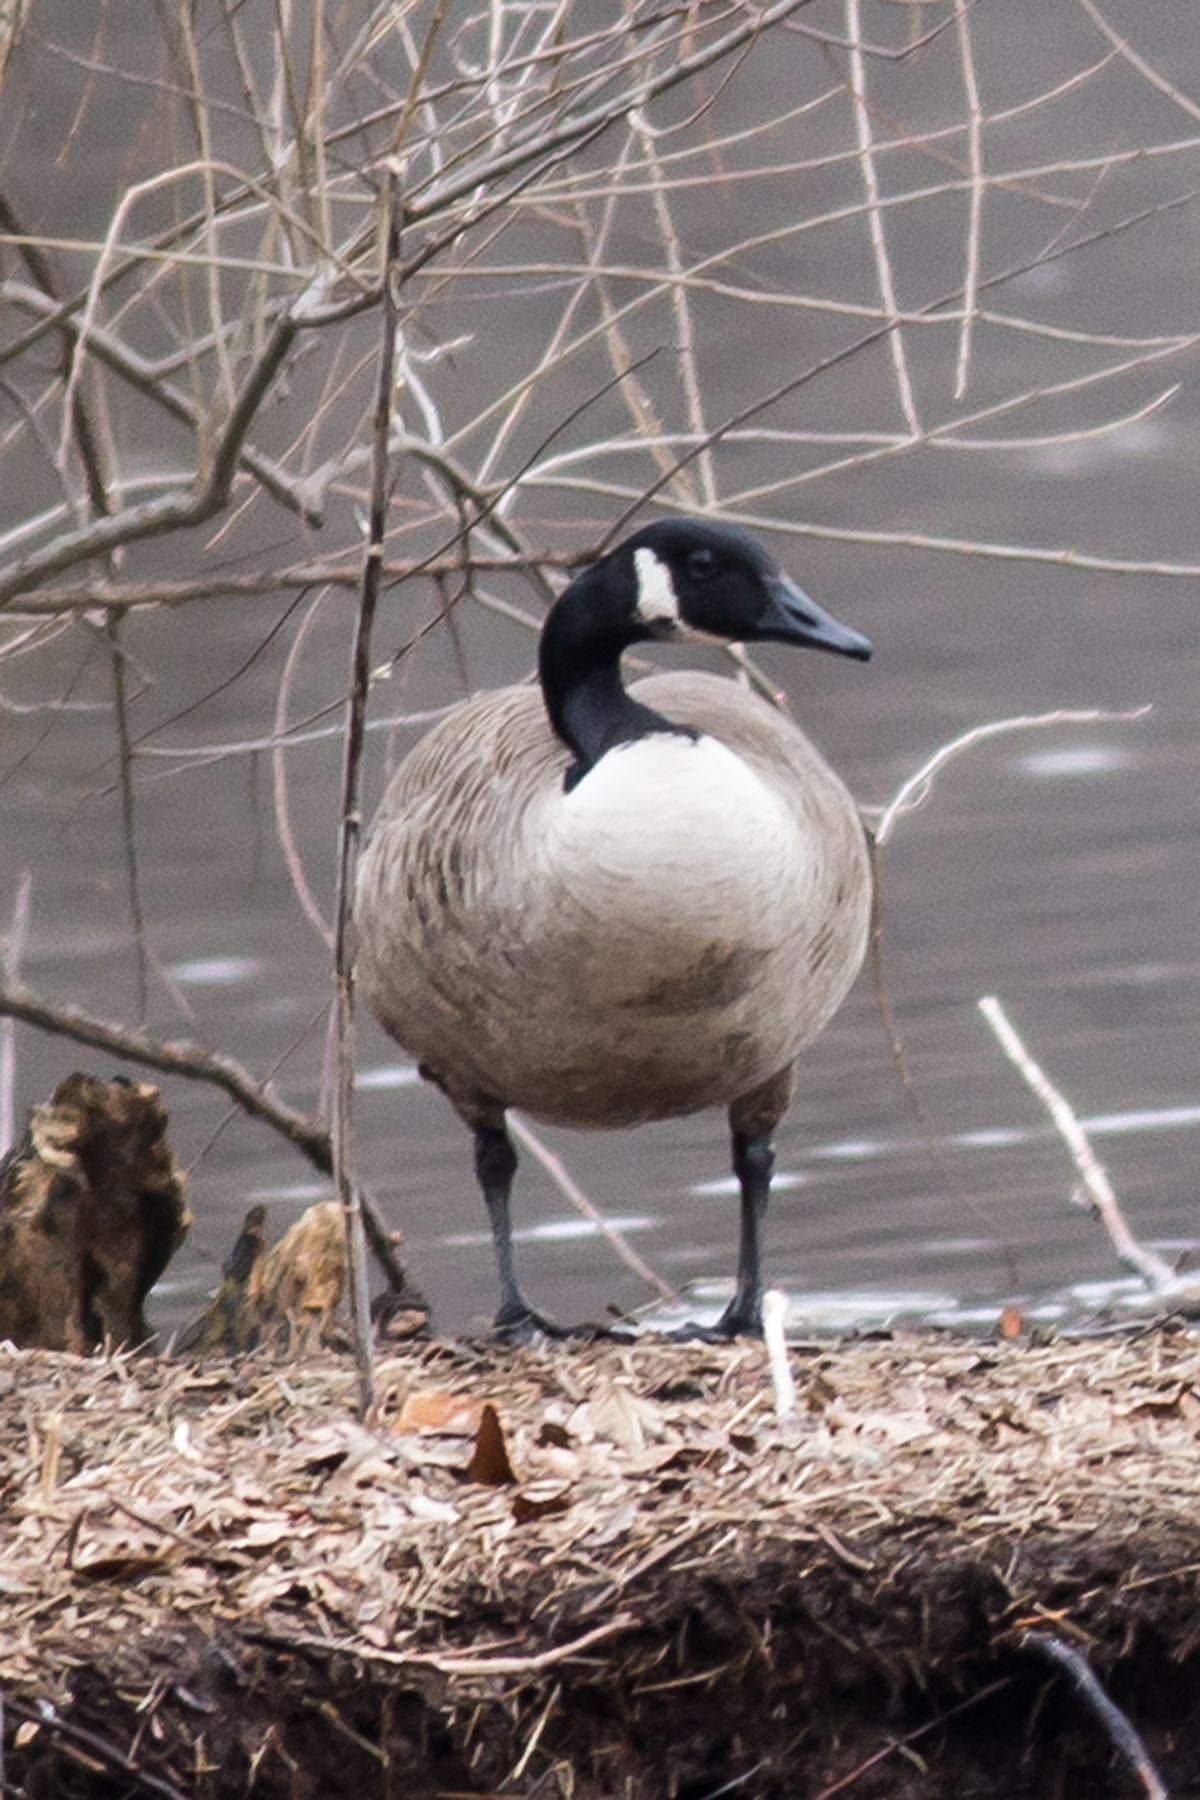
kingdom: Animalia
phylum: Chordata
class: Aves
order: Anseriformes
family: Anatidae
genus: Branta
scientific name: Branta canadensis
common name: Canada goose
